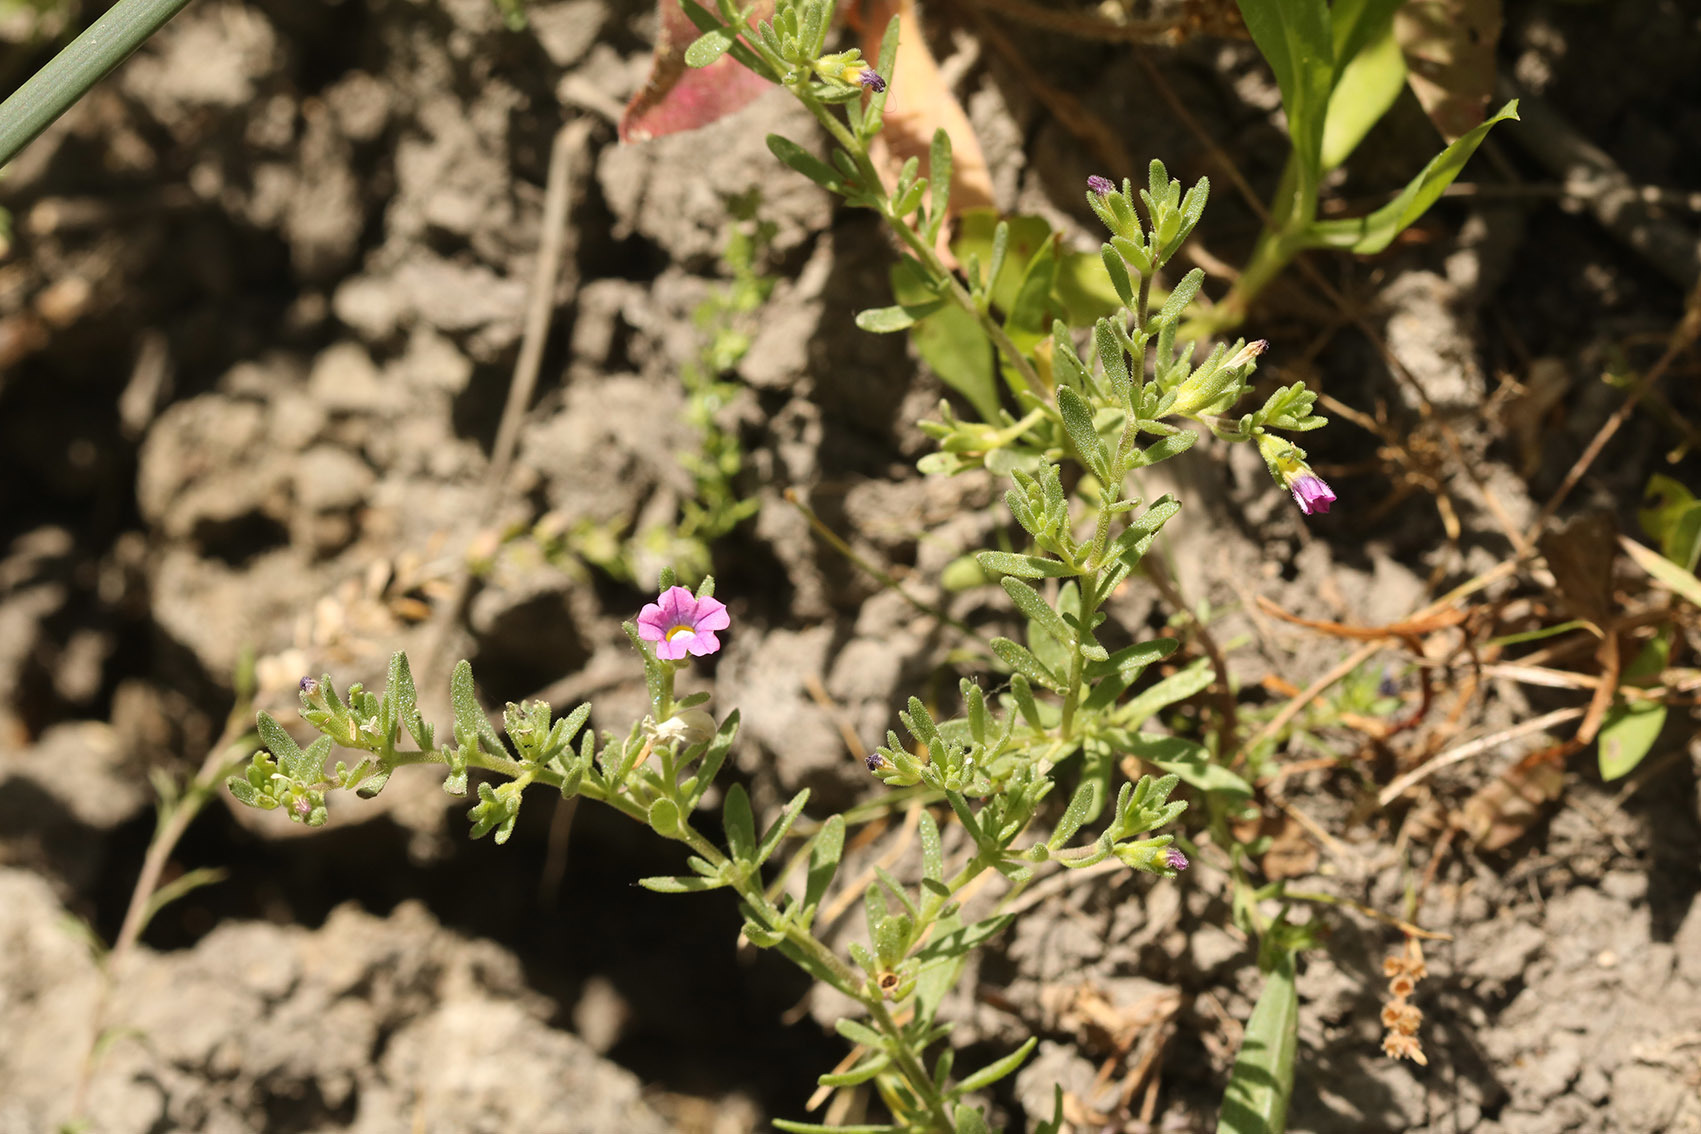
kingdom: Plantae
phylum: Tracheophyta
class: Magnoliopsida
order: Solanales
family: Solanaceae
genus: Calibrachoa
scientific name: Calibrachoa parviflora
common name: Seaside petunia
